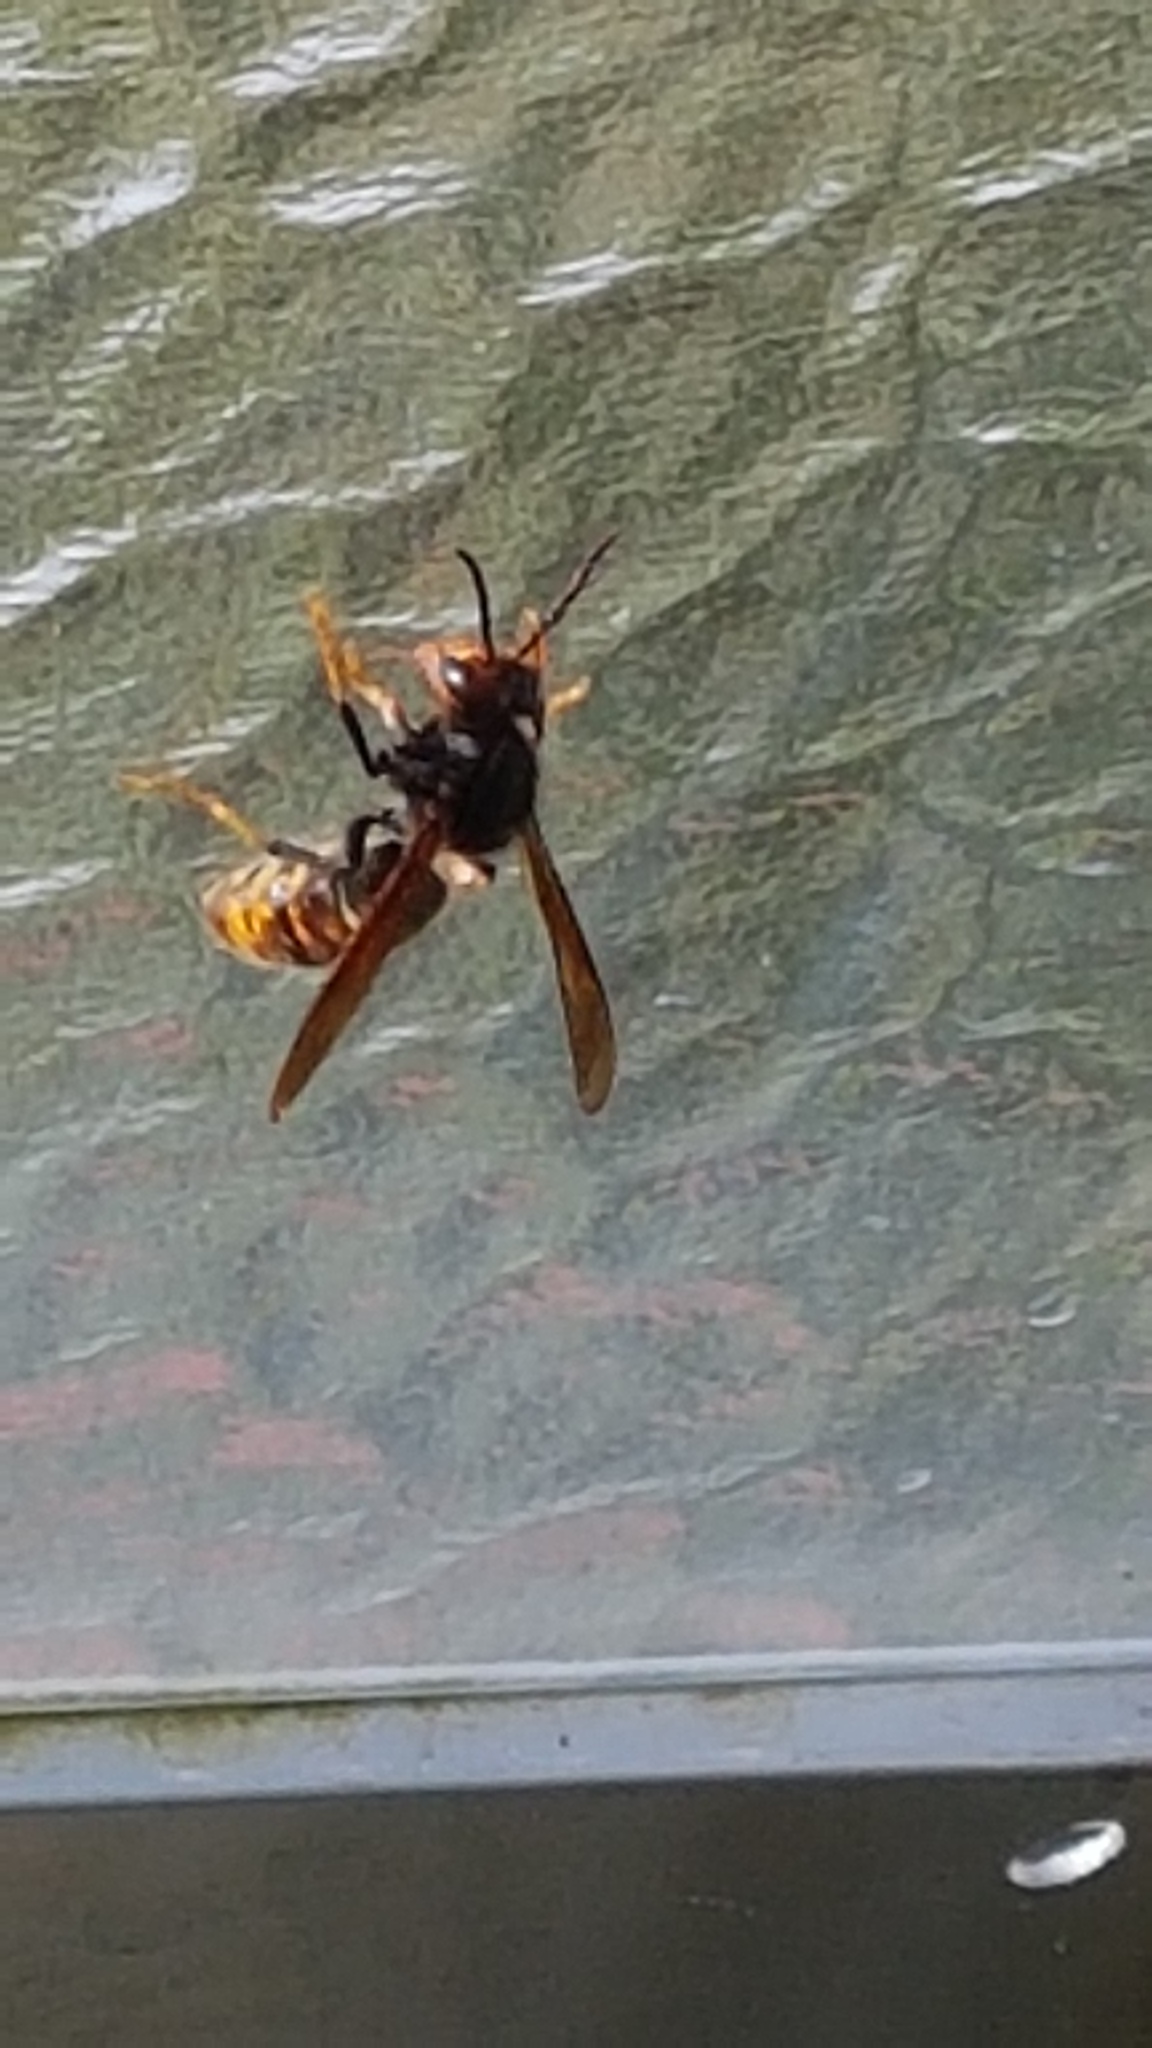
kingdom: Animalia
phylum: Arthropoda
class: Insecta
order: Hymenoptera
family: Vespidae
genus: Vespa
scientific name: Vespa velutina
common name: Asian hornet
